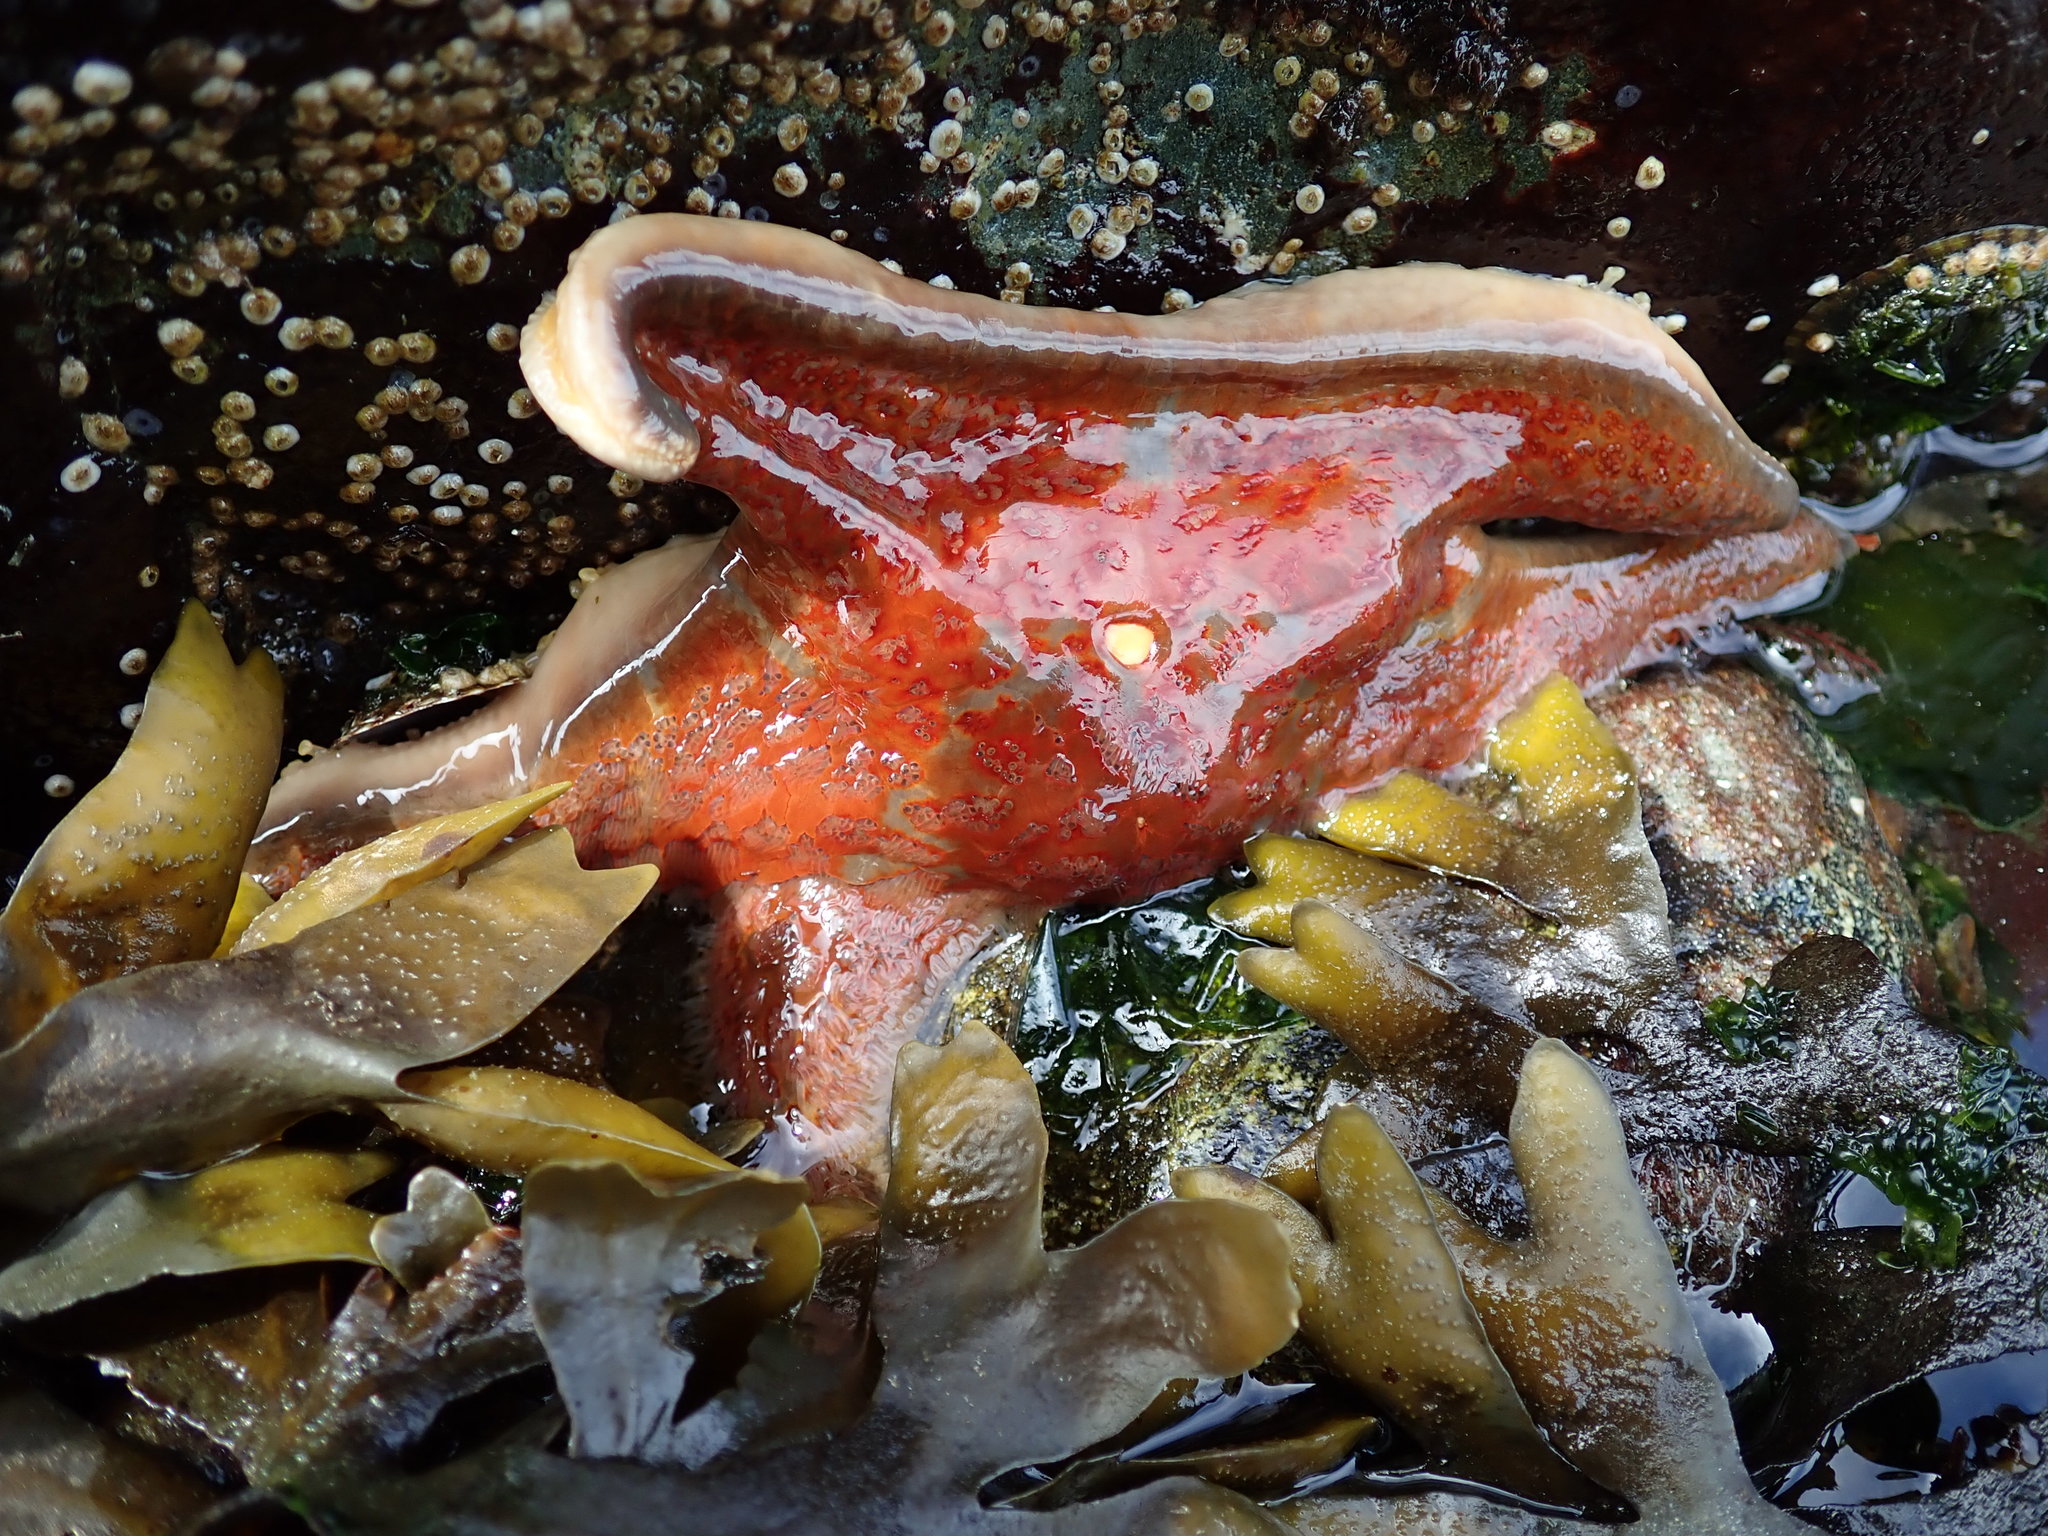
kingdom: Animalia
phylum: Echinodermata
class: Asteroidea
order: Valvatida
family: Asteropseidae
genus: Dermasterias
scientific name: Dermasterias imbricata
